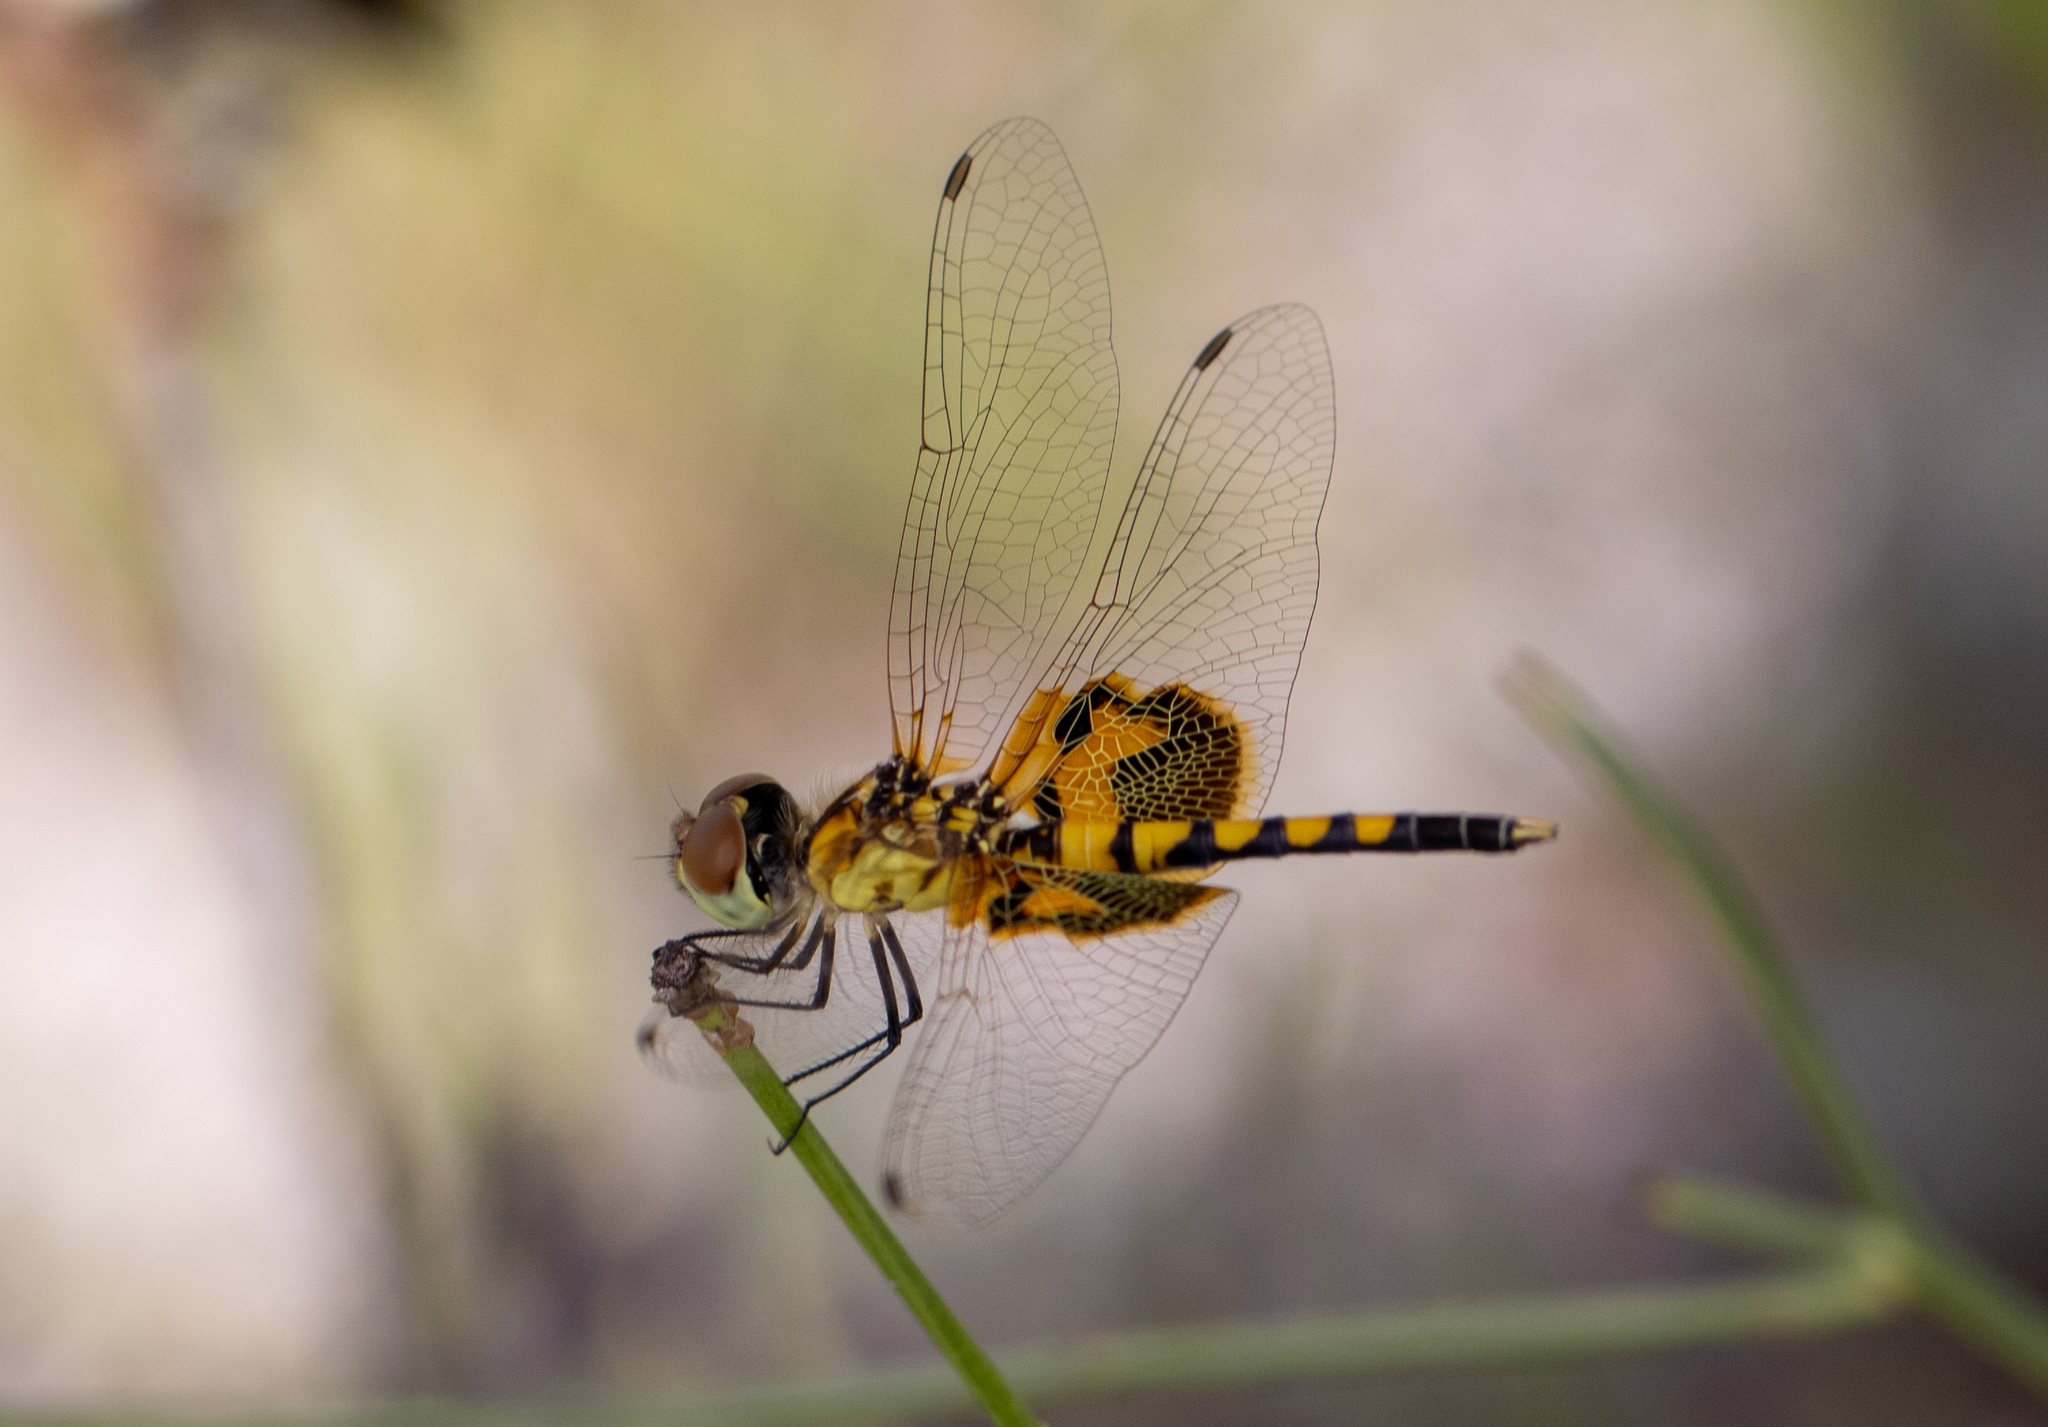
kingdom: Animalia
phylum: Arthropoda
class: Insecta
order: Odonata
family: Libellulidae
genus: Celithemis
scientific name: Celithemis amanda
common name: Amanda's pennant
